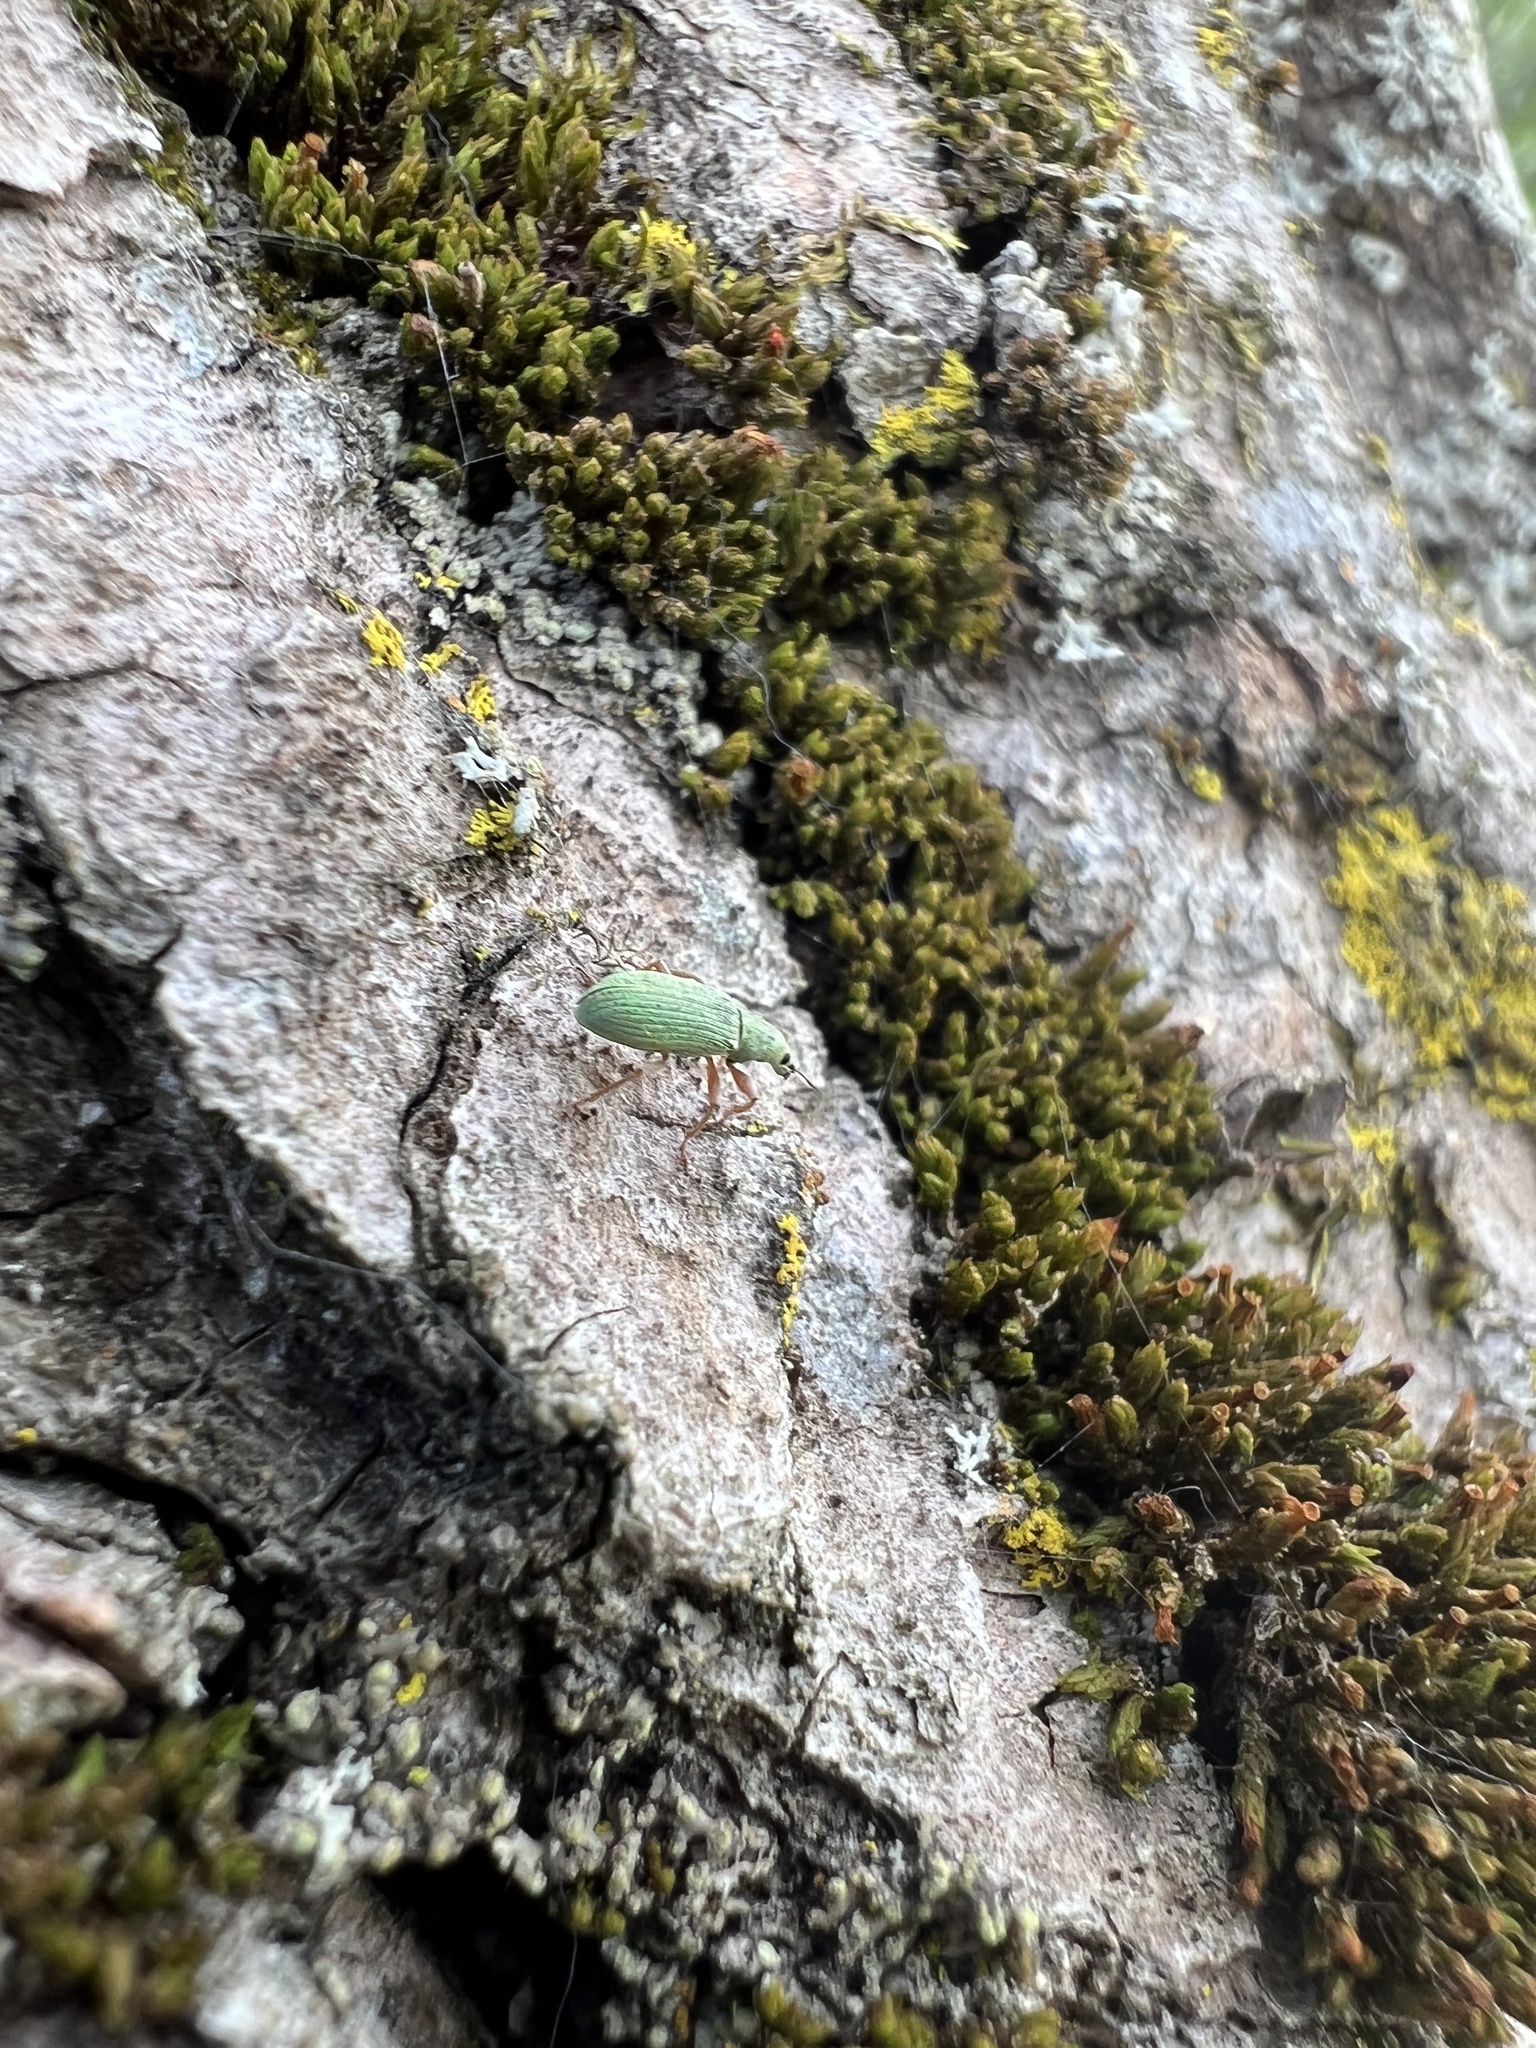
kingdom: Animalia
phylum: Arthropoda
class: Insecta
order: Coleoptera
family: Curculionidae
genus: Polydrusus
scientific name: Polydrusus impressifrons
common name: Weevil
